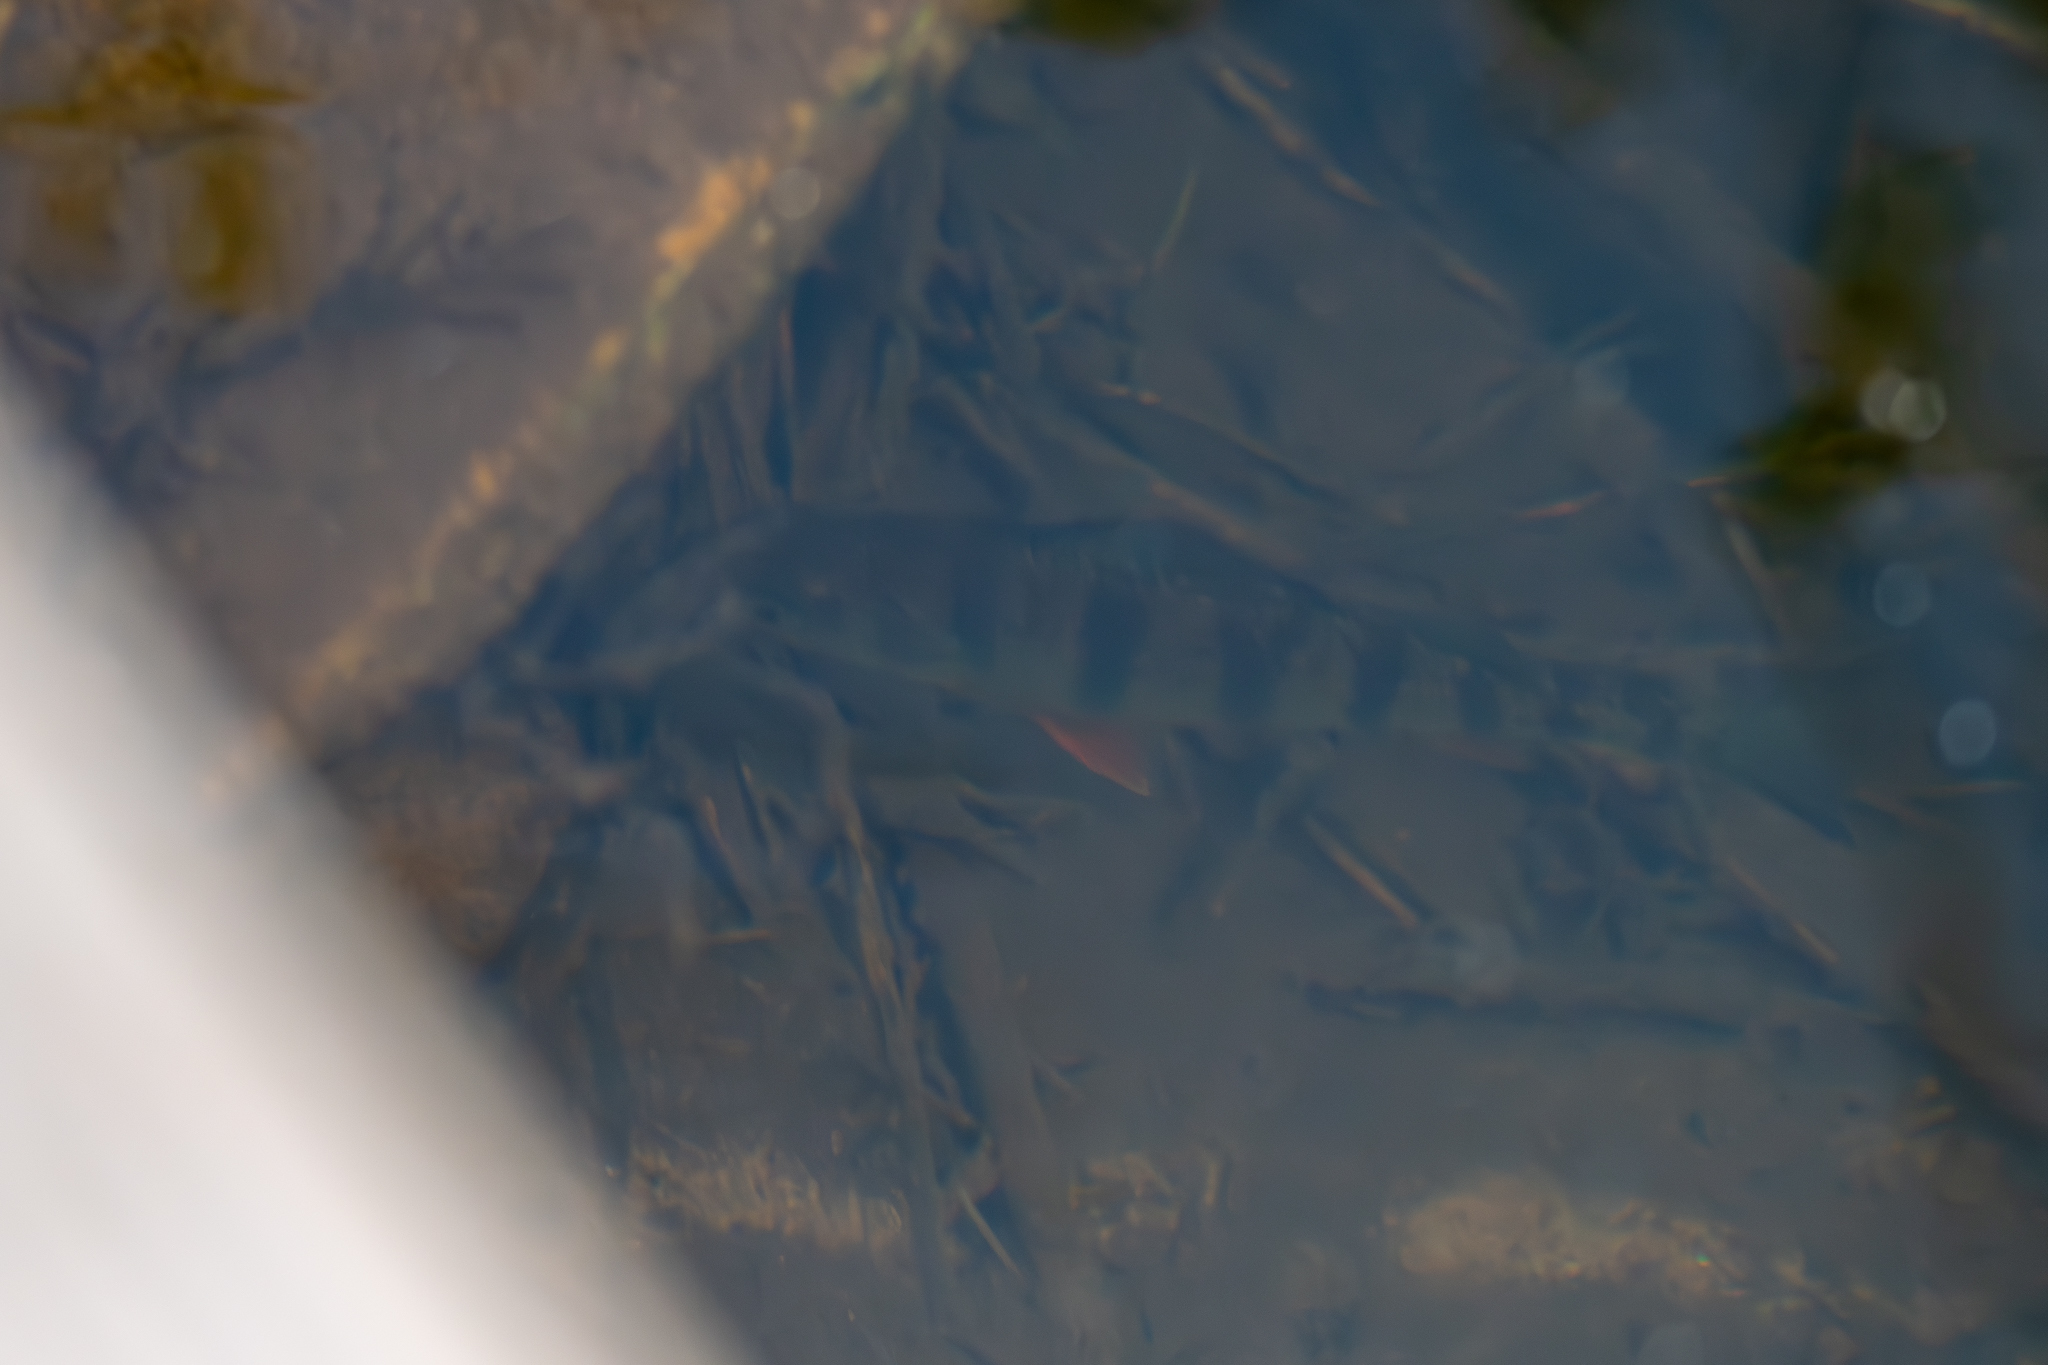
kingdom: Animalia
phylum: Chordata
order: Perciformes
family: Percidae
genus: Perca
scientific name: Perca flavescens
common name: Yellow perch
